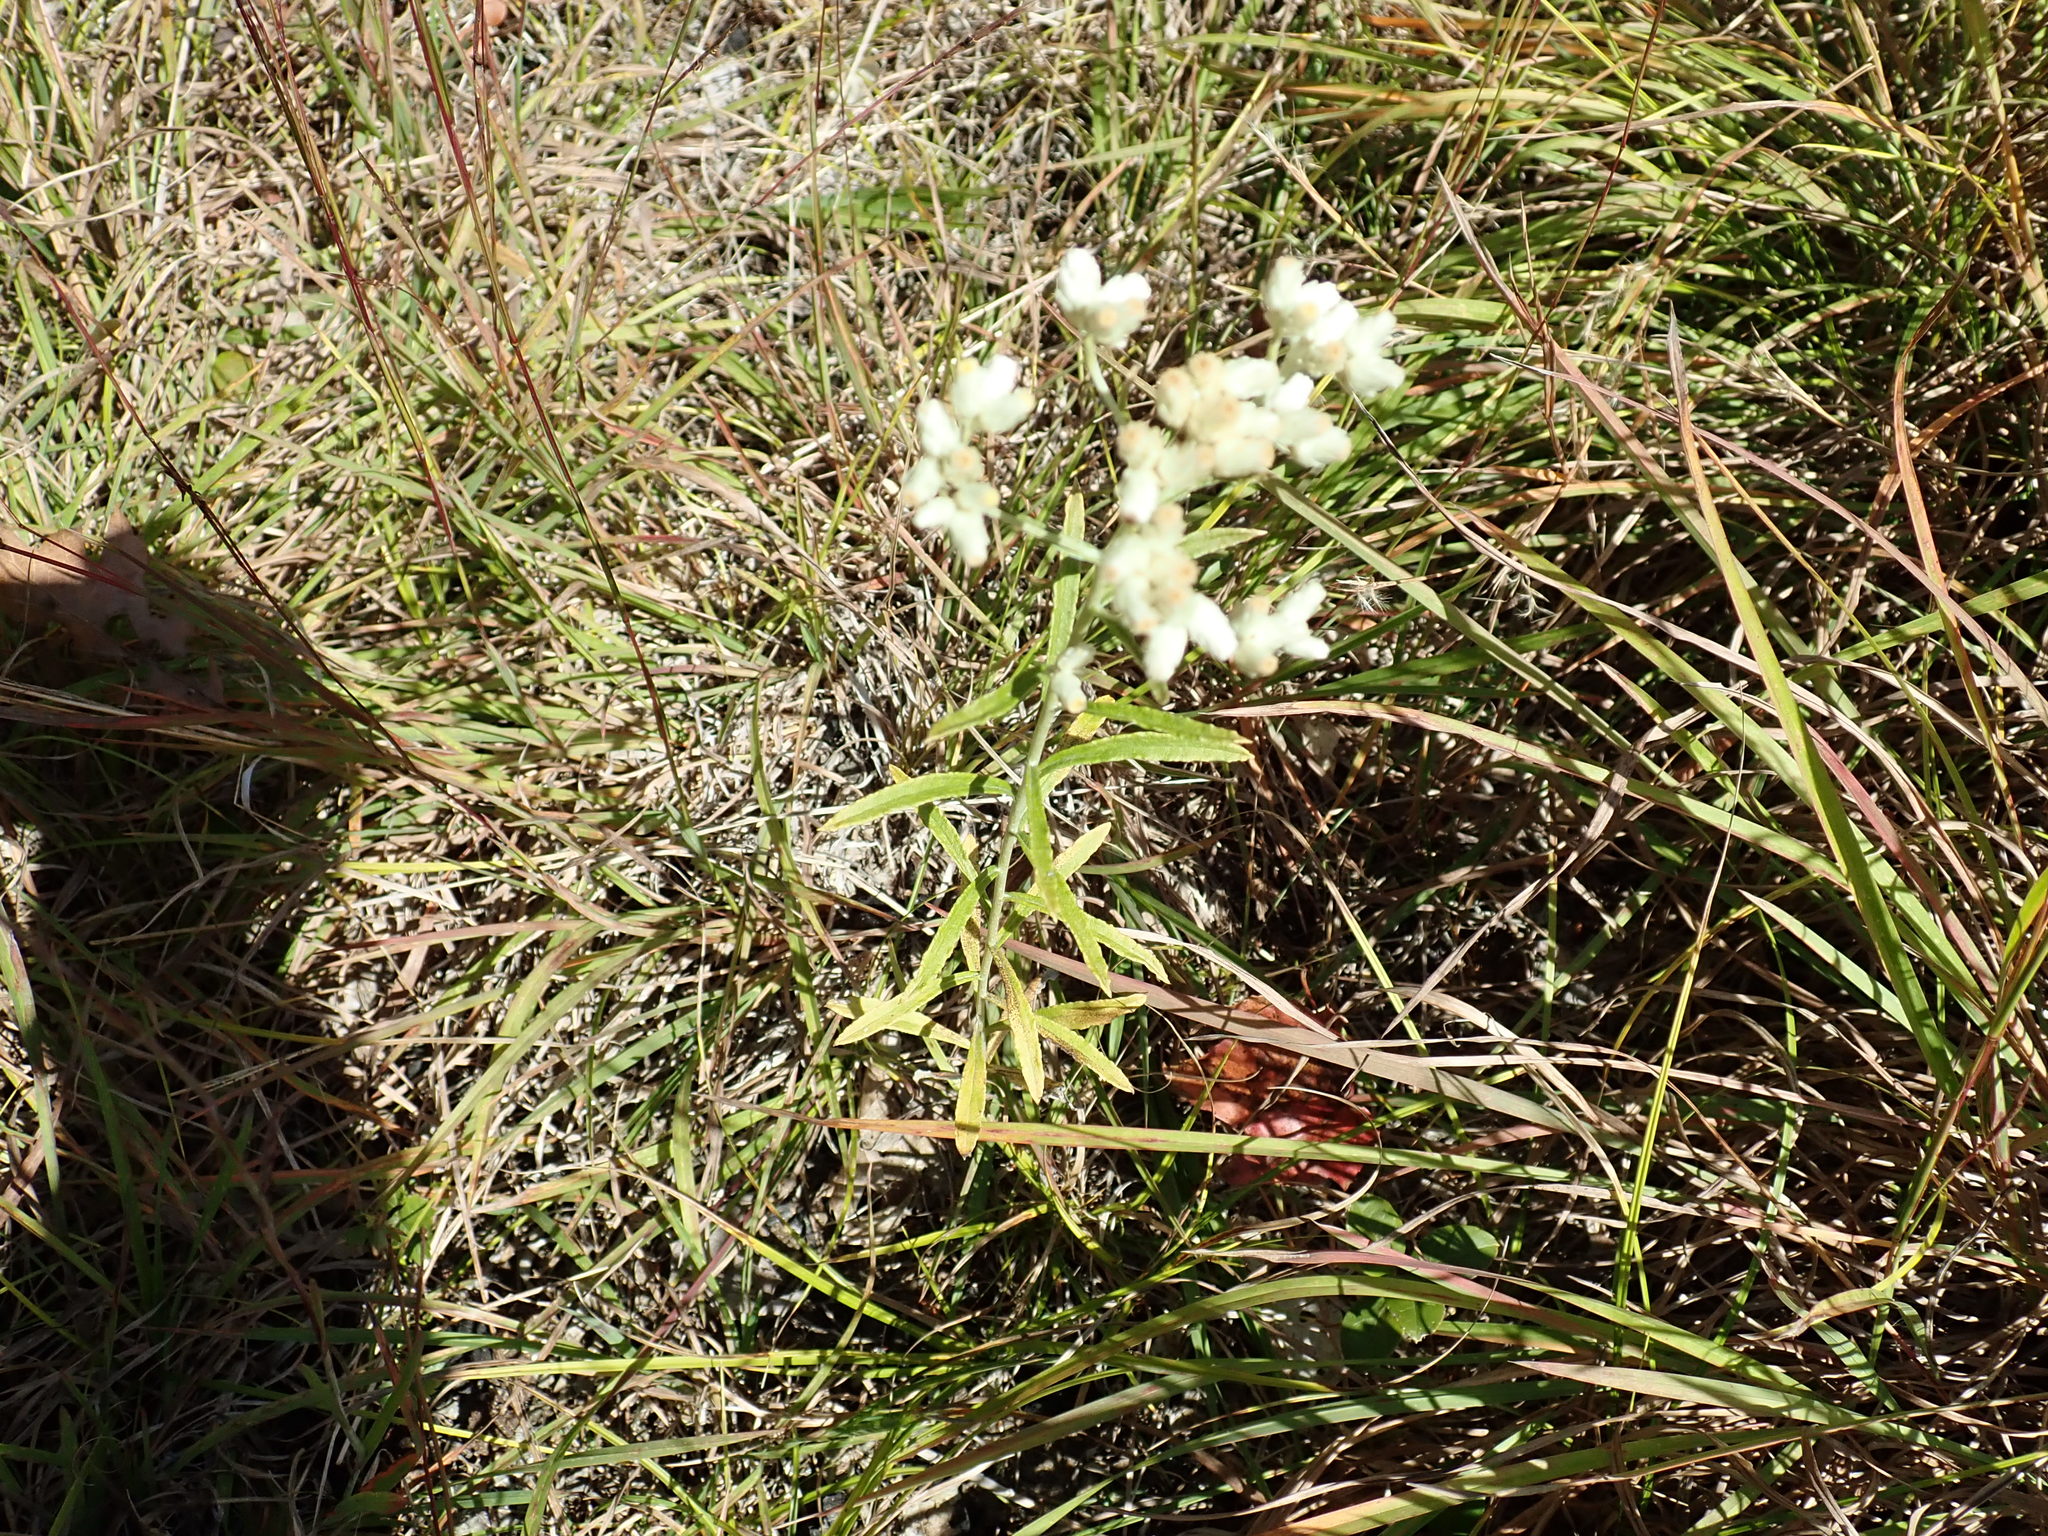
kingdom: Plantae
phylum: Tracheophyta
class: Magnoliopsida
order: Asterales
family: Asteraceae
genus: Pseudognaphalium
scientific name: Pseudognaphalium obtusifolium
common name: Eastern rabbit-tobacco
